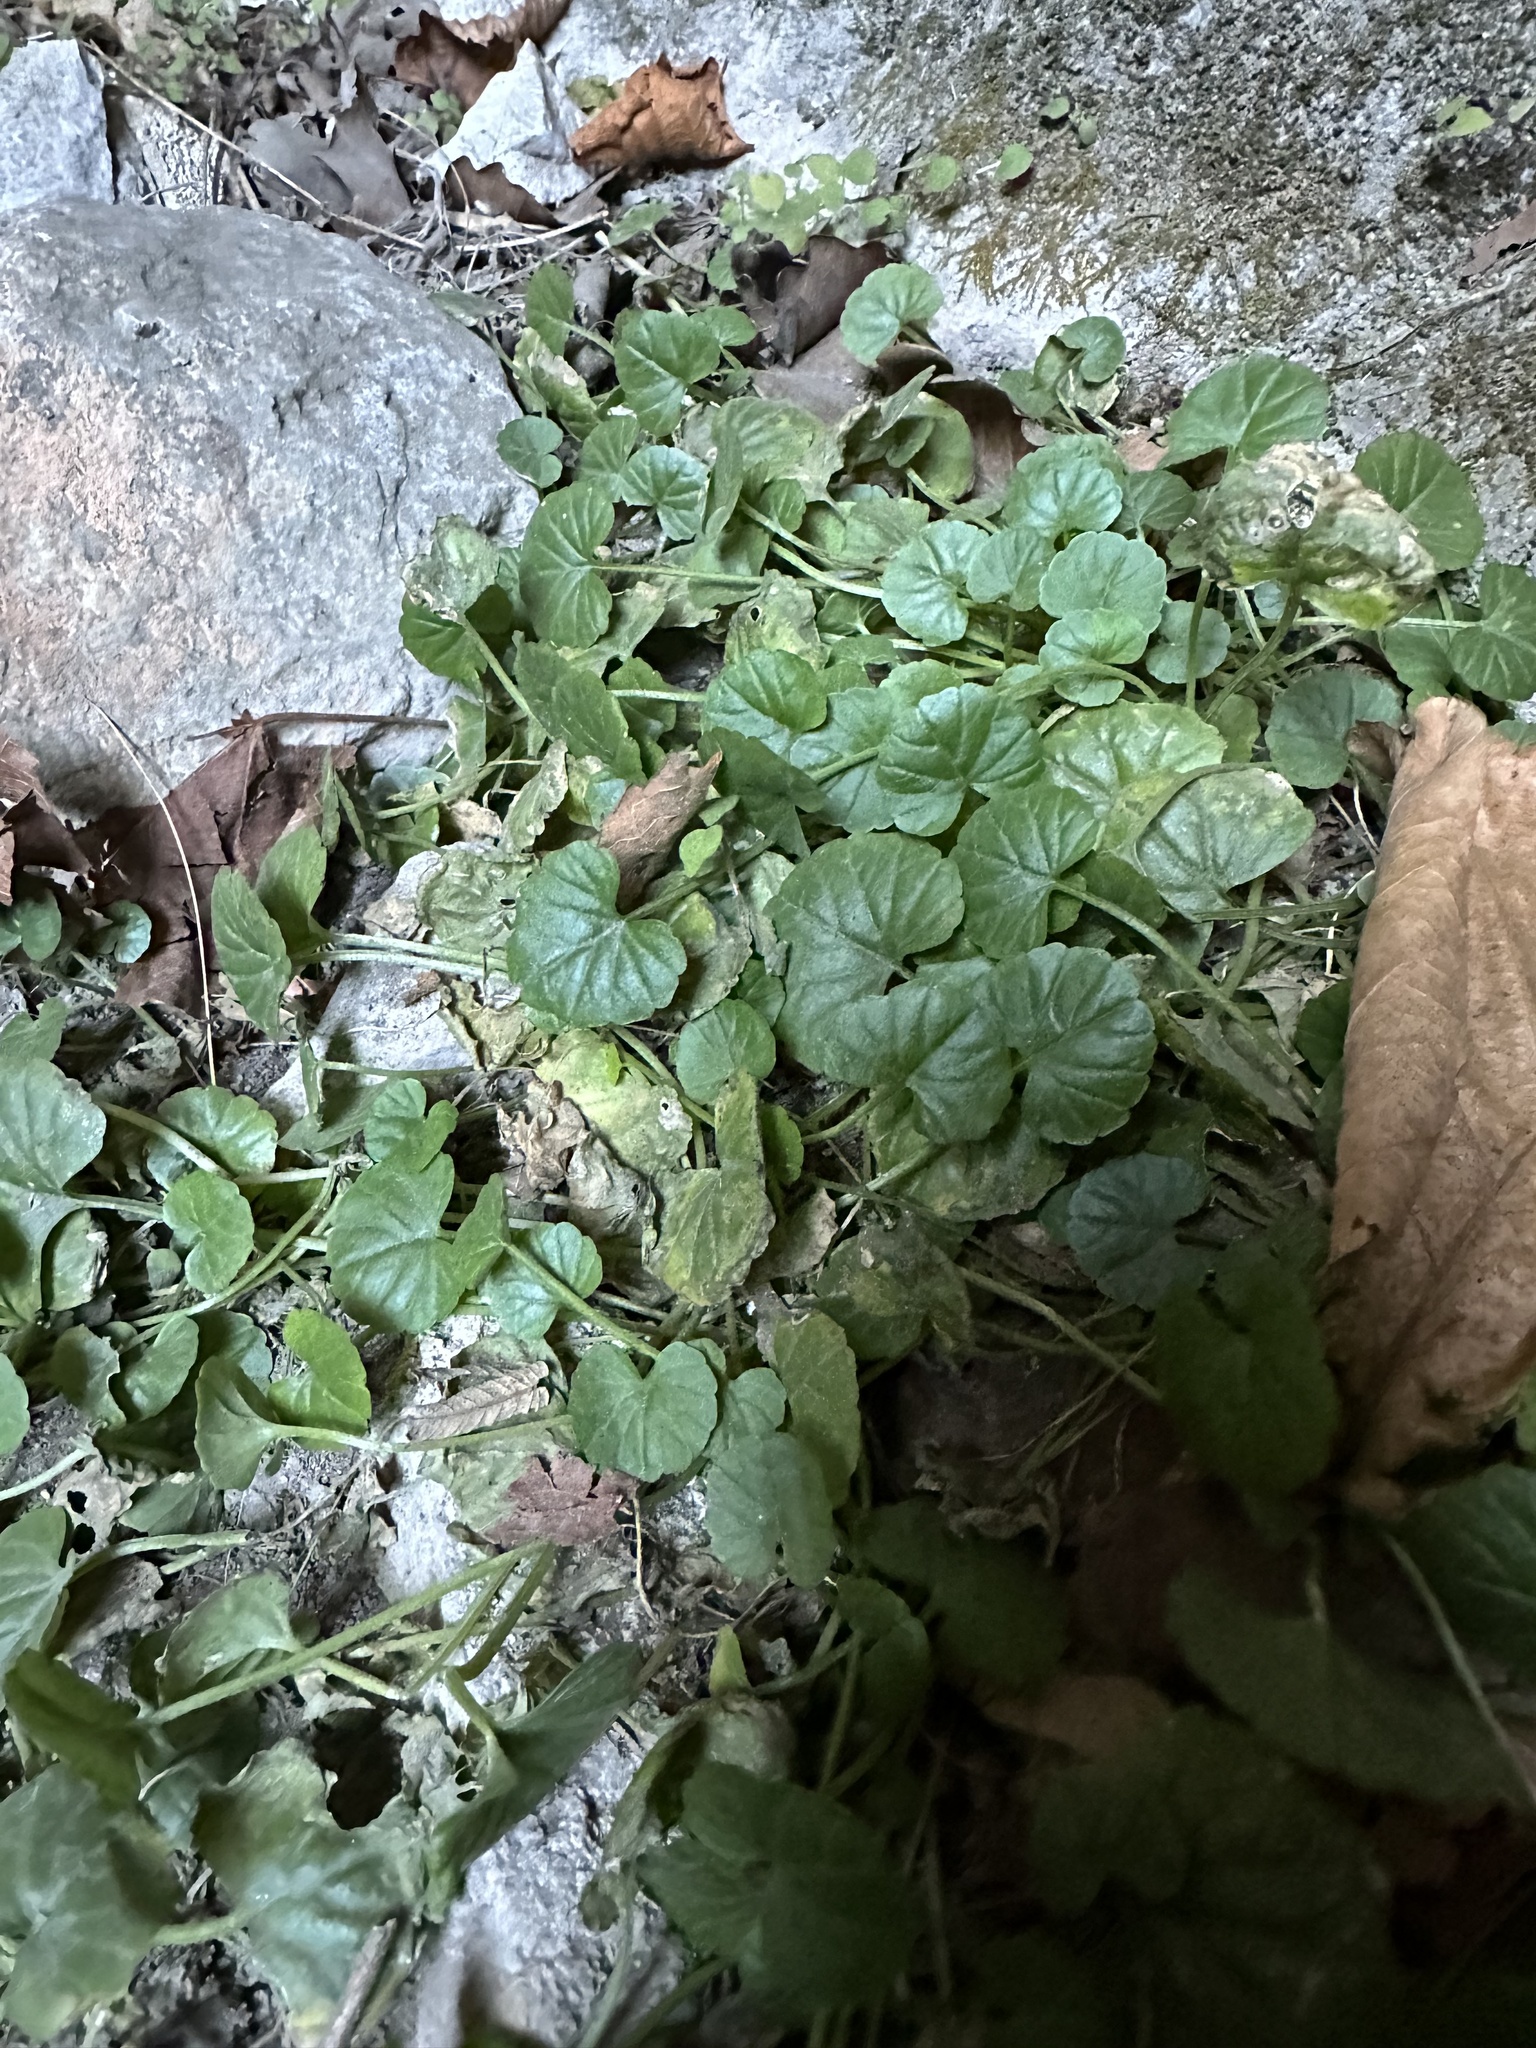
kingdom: Plantae
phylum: Tracheophyta
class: Magnoliopsida
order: Brassicales
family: Brassicaceae
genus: Megadenia
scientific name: Megadenia pygmaea
